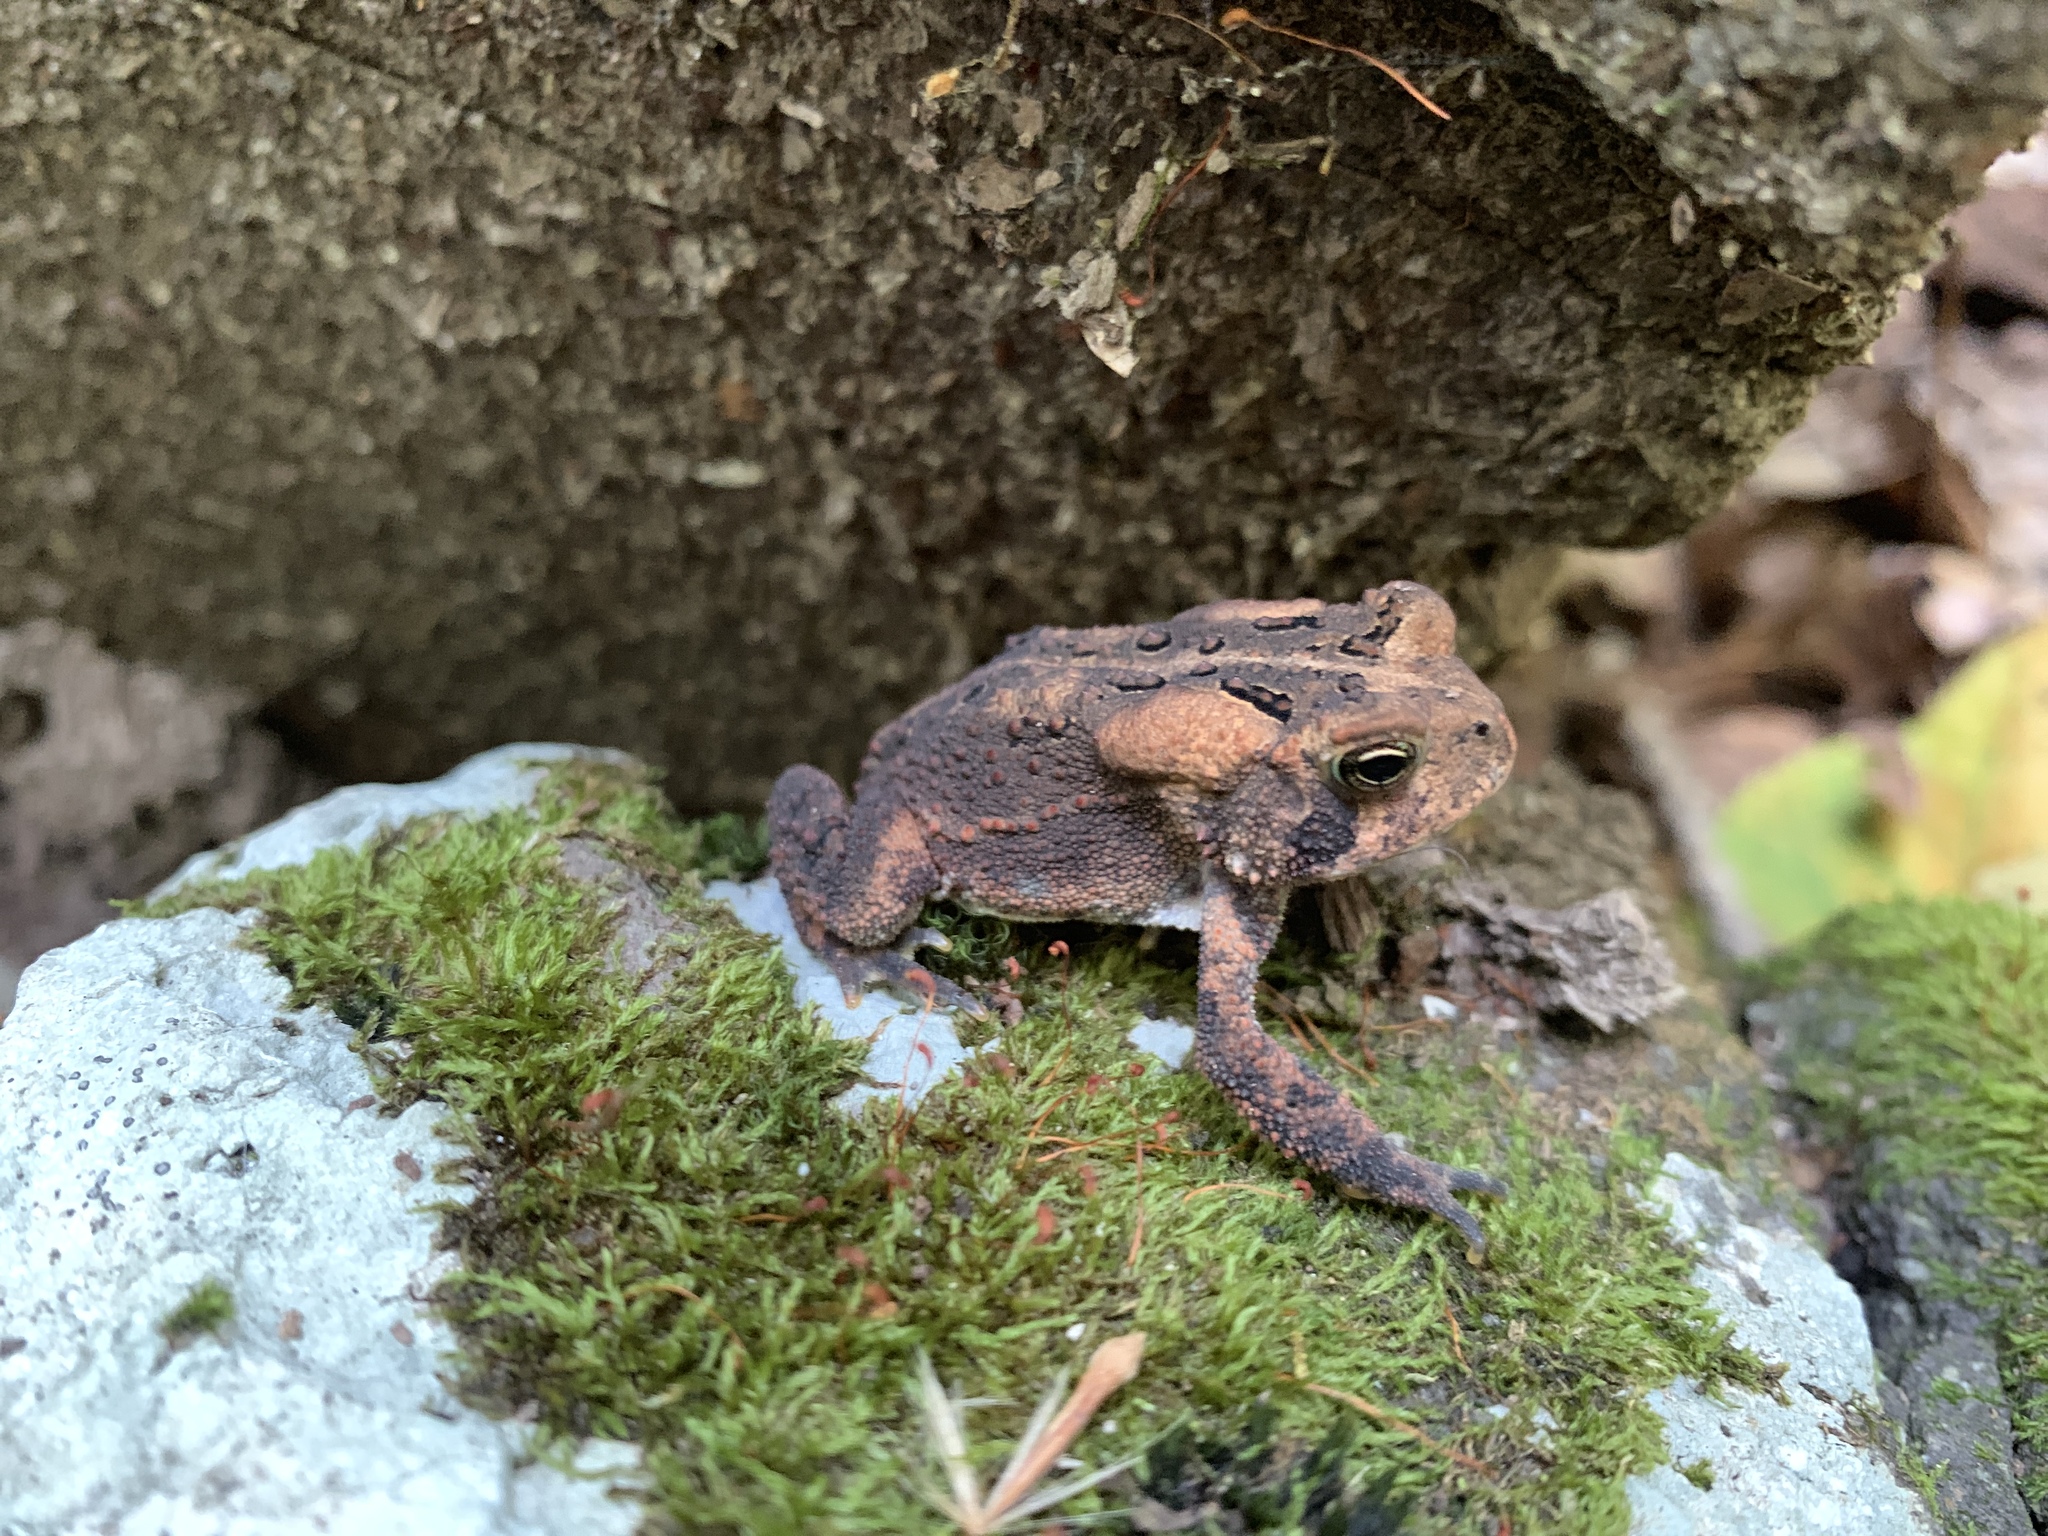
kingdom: Animalia
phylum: Chordata
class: Amphibia
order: Anura
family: Bufonidae
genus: Anaxyrus
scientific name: Anaxyrus americanus
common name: American toad
